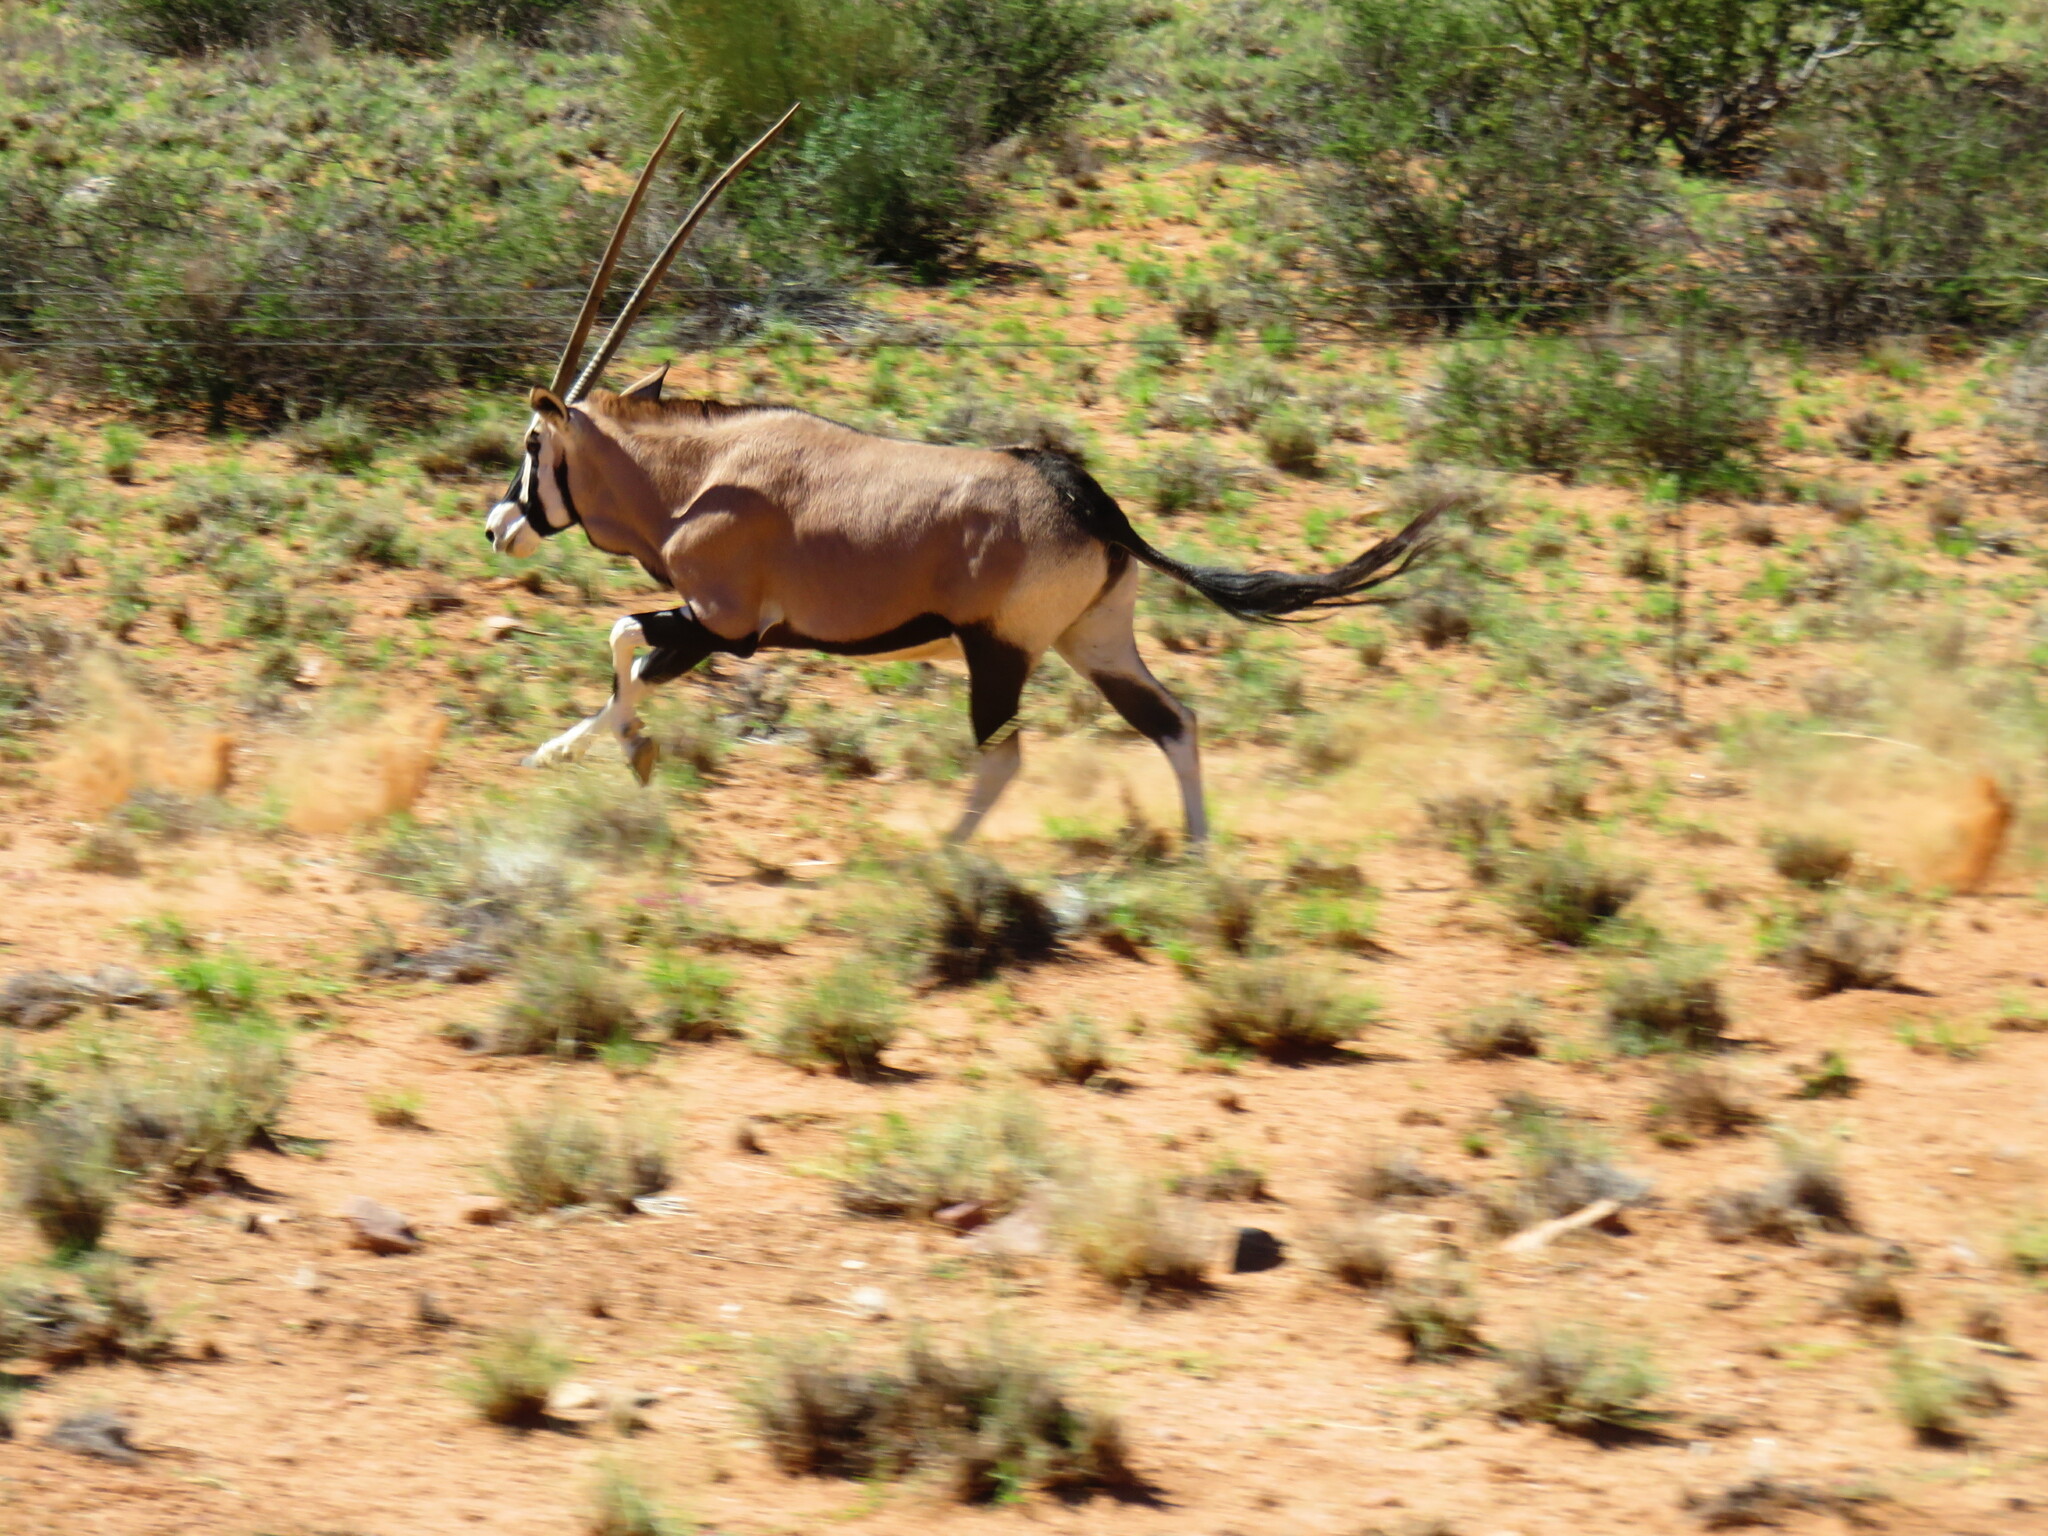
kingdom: Animalia
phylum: Chordata
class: Mammalia
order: Artiodactyla
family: Bovidae
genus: Oryx
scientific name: Oryx gazella
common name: Gemsbok
